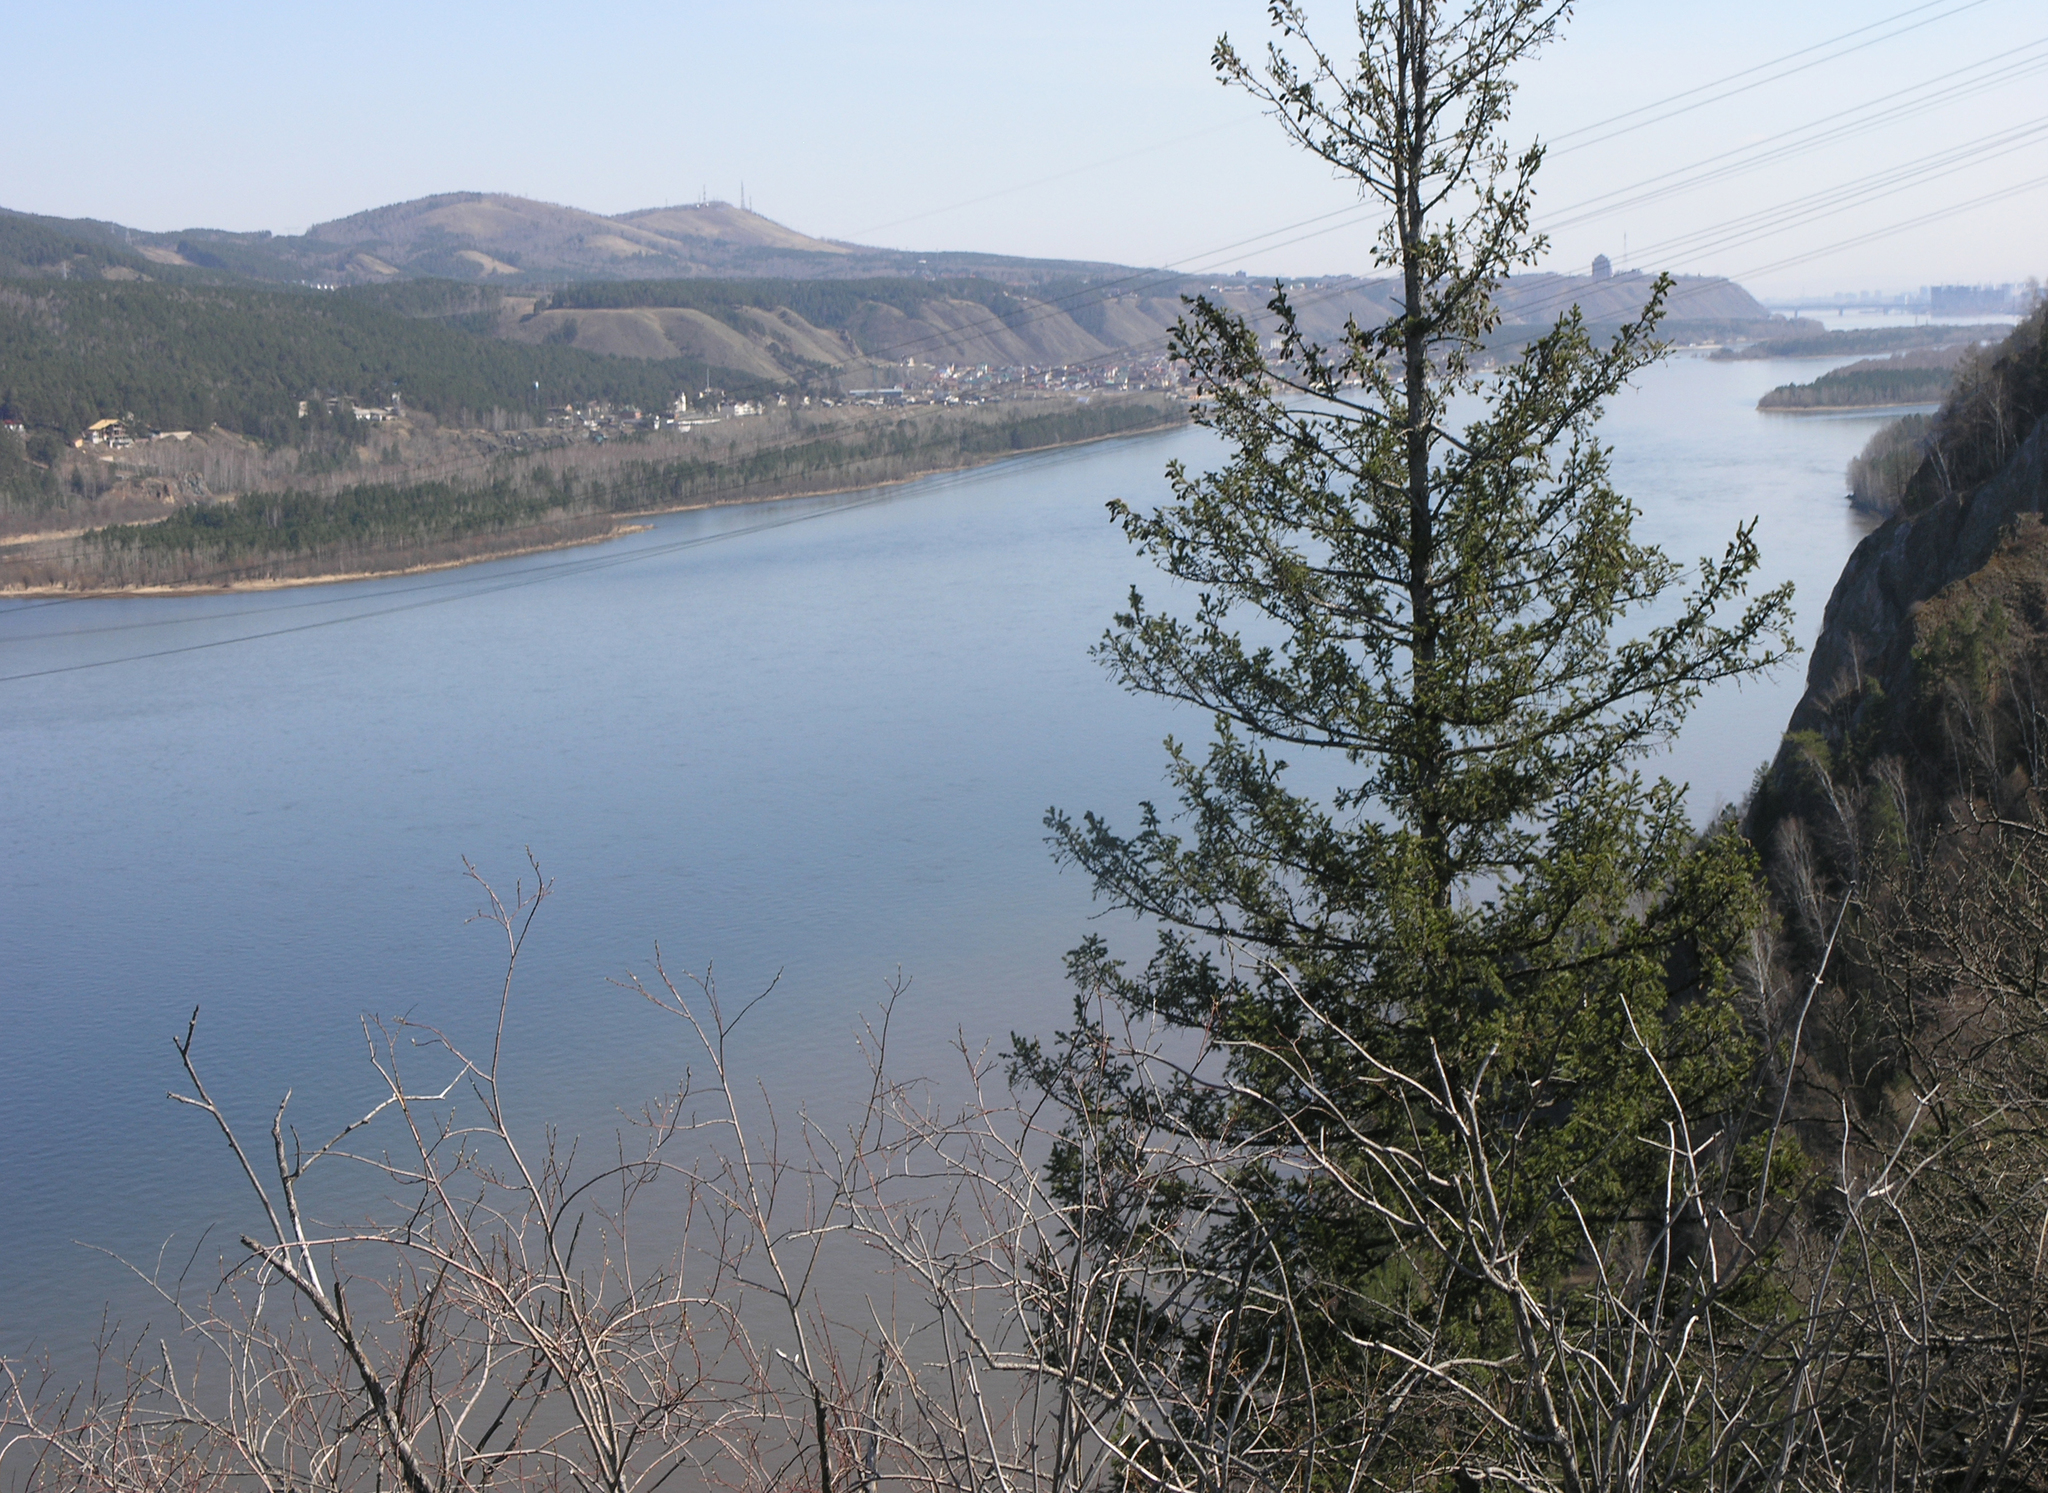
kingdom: Plantae
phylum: Tracheophyta
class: Pinopsida
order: Pinales
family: Pinaceae
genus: Picea
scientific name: Picea obovata
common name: Siberian spruce
